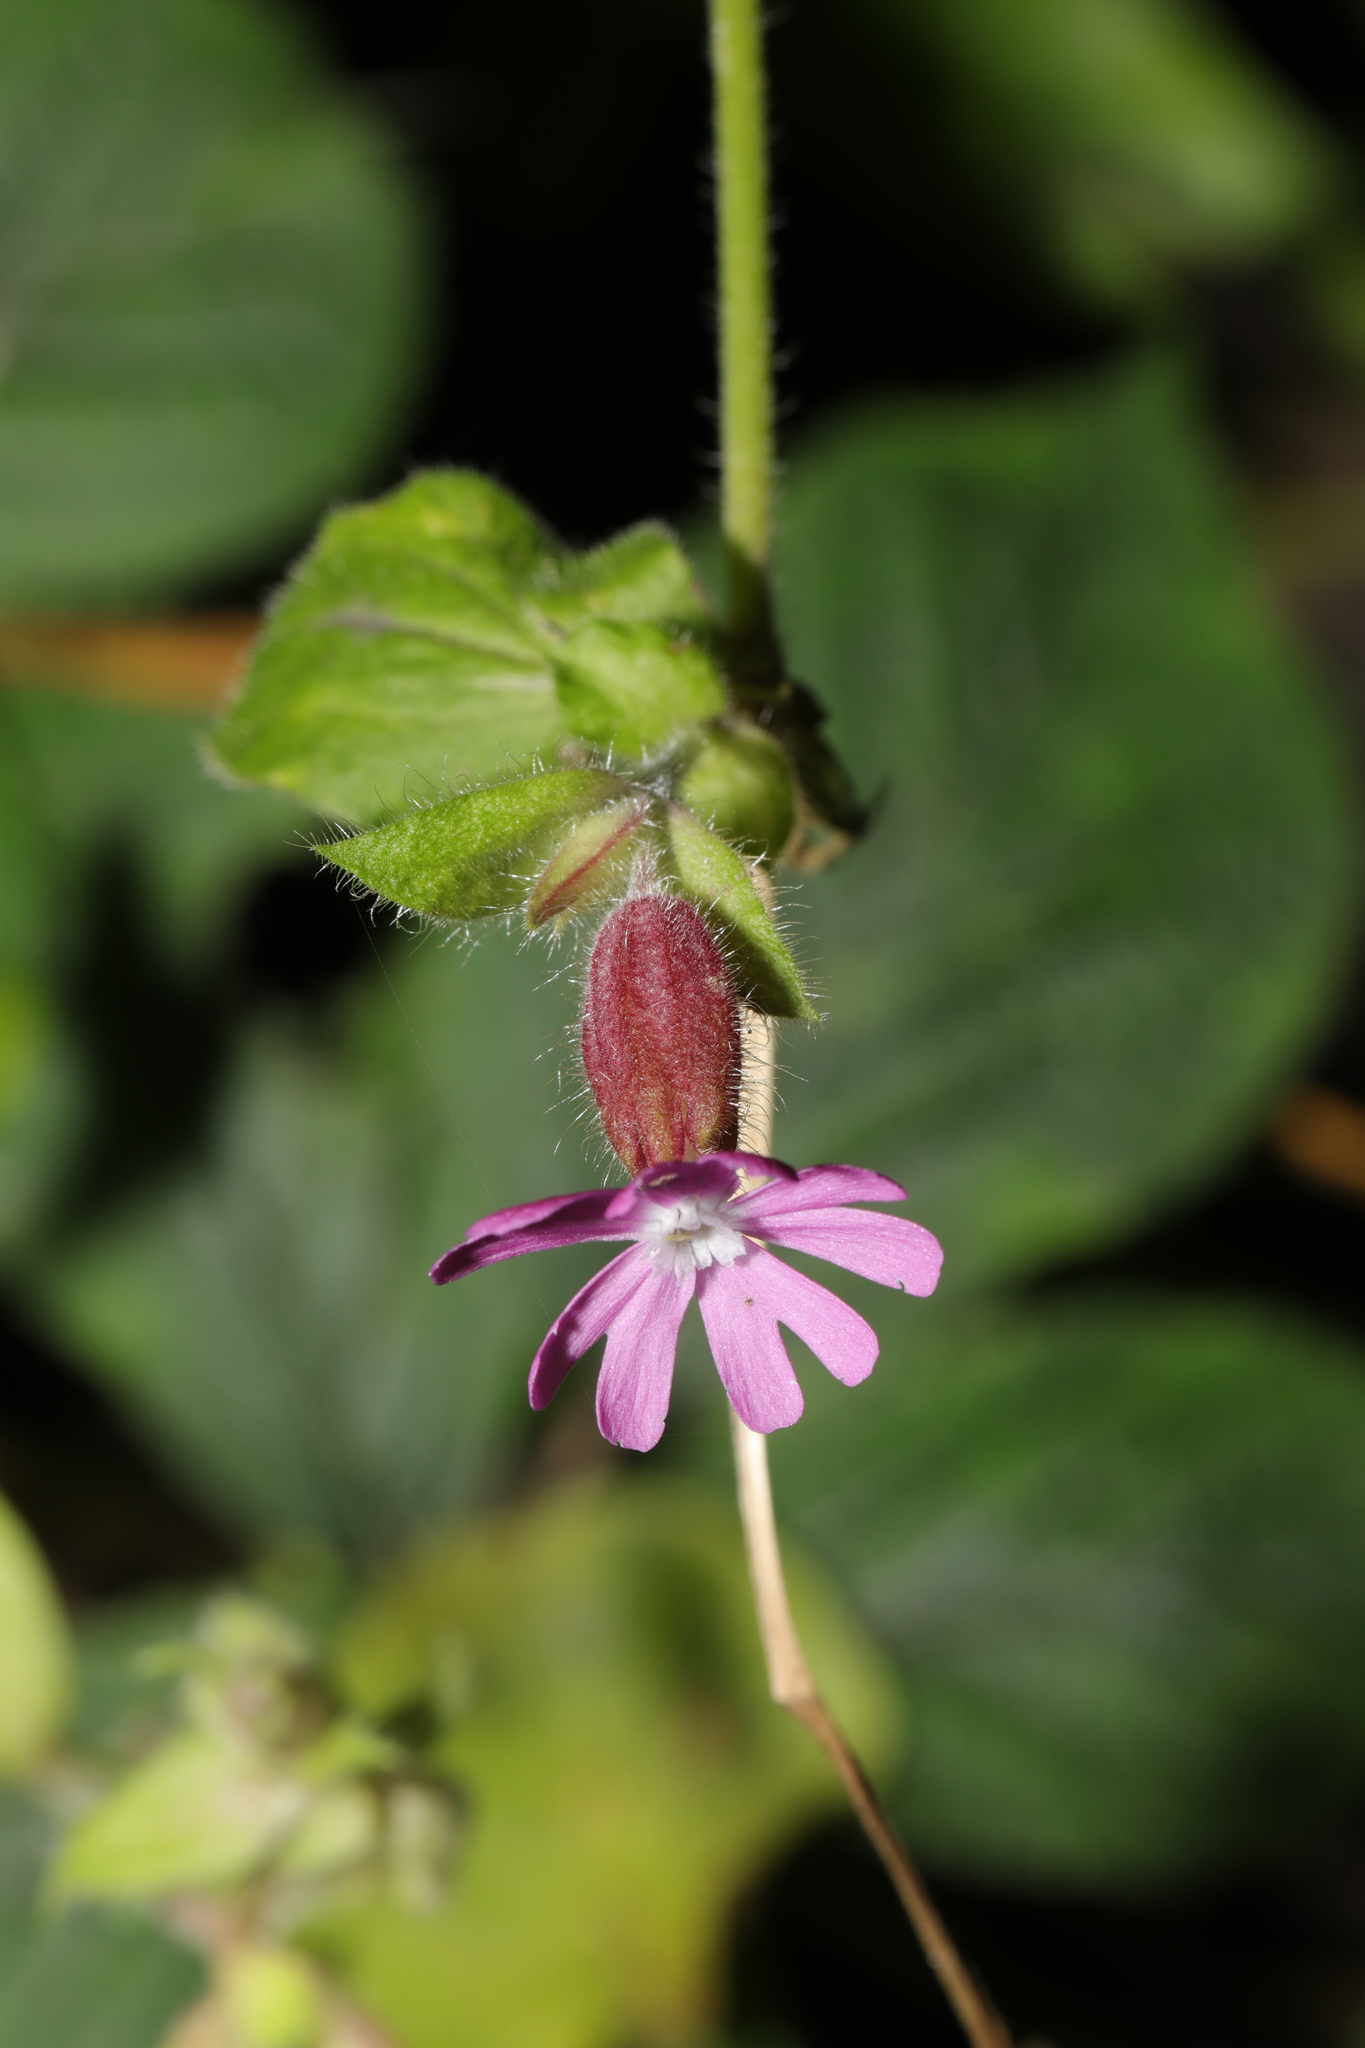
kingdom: Plantae
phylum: Tracheophyta
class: Magnoliopsida
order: Caryophyllales
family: Caryophyllaceae
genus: Silene
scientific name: Silene dioica
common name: Red campion
